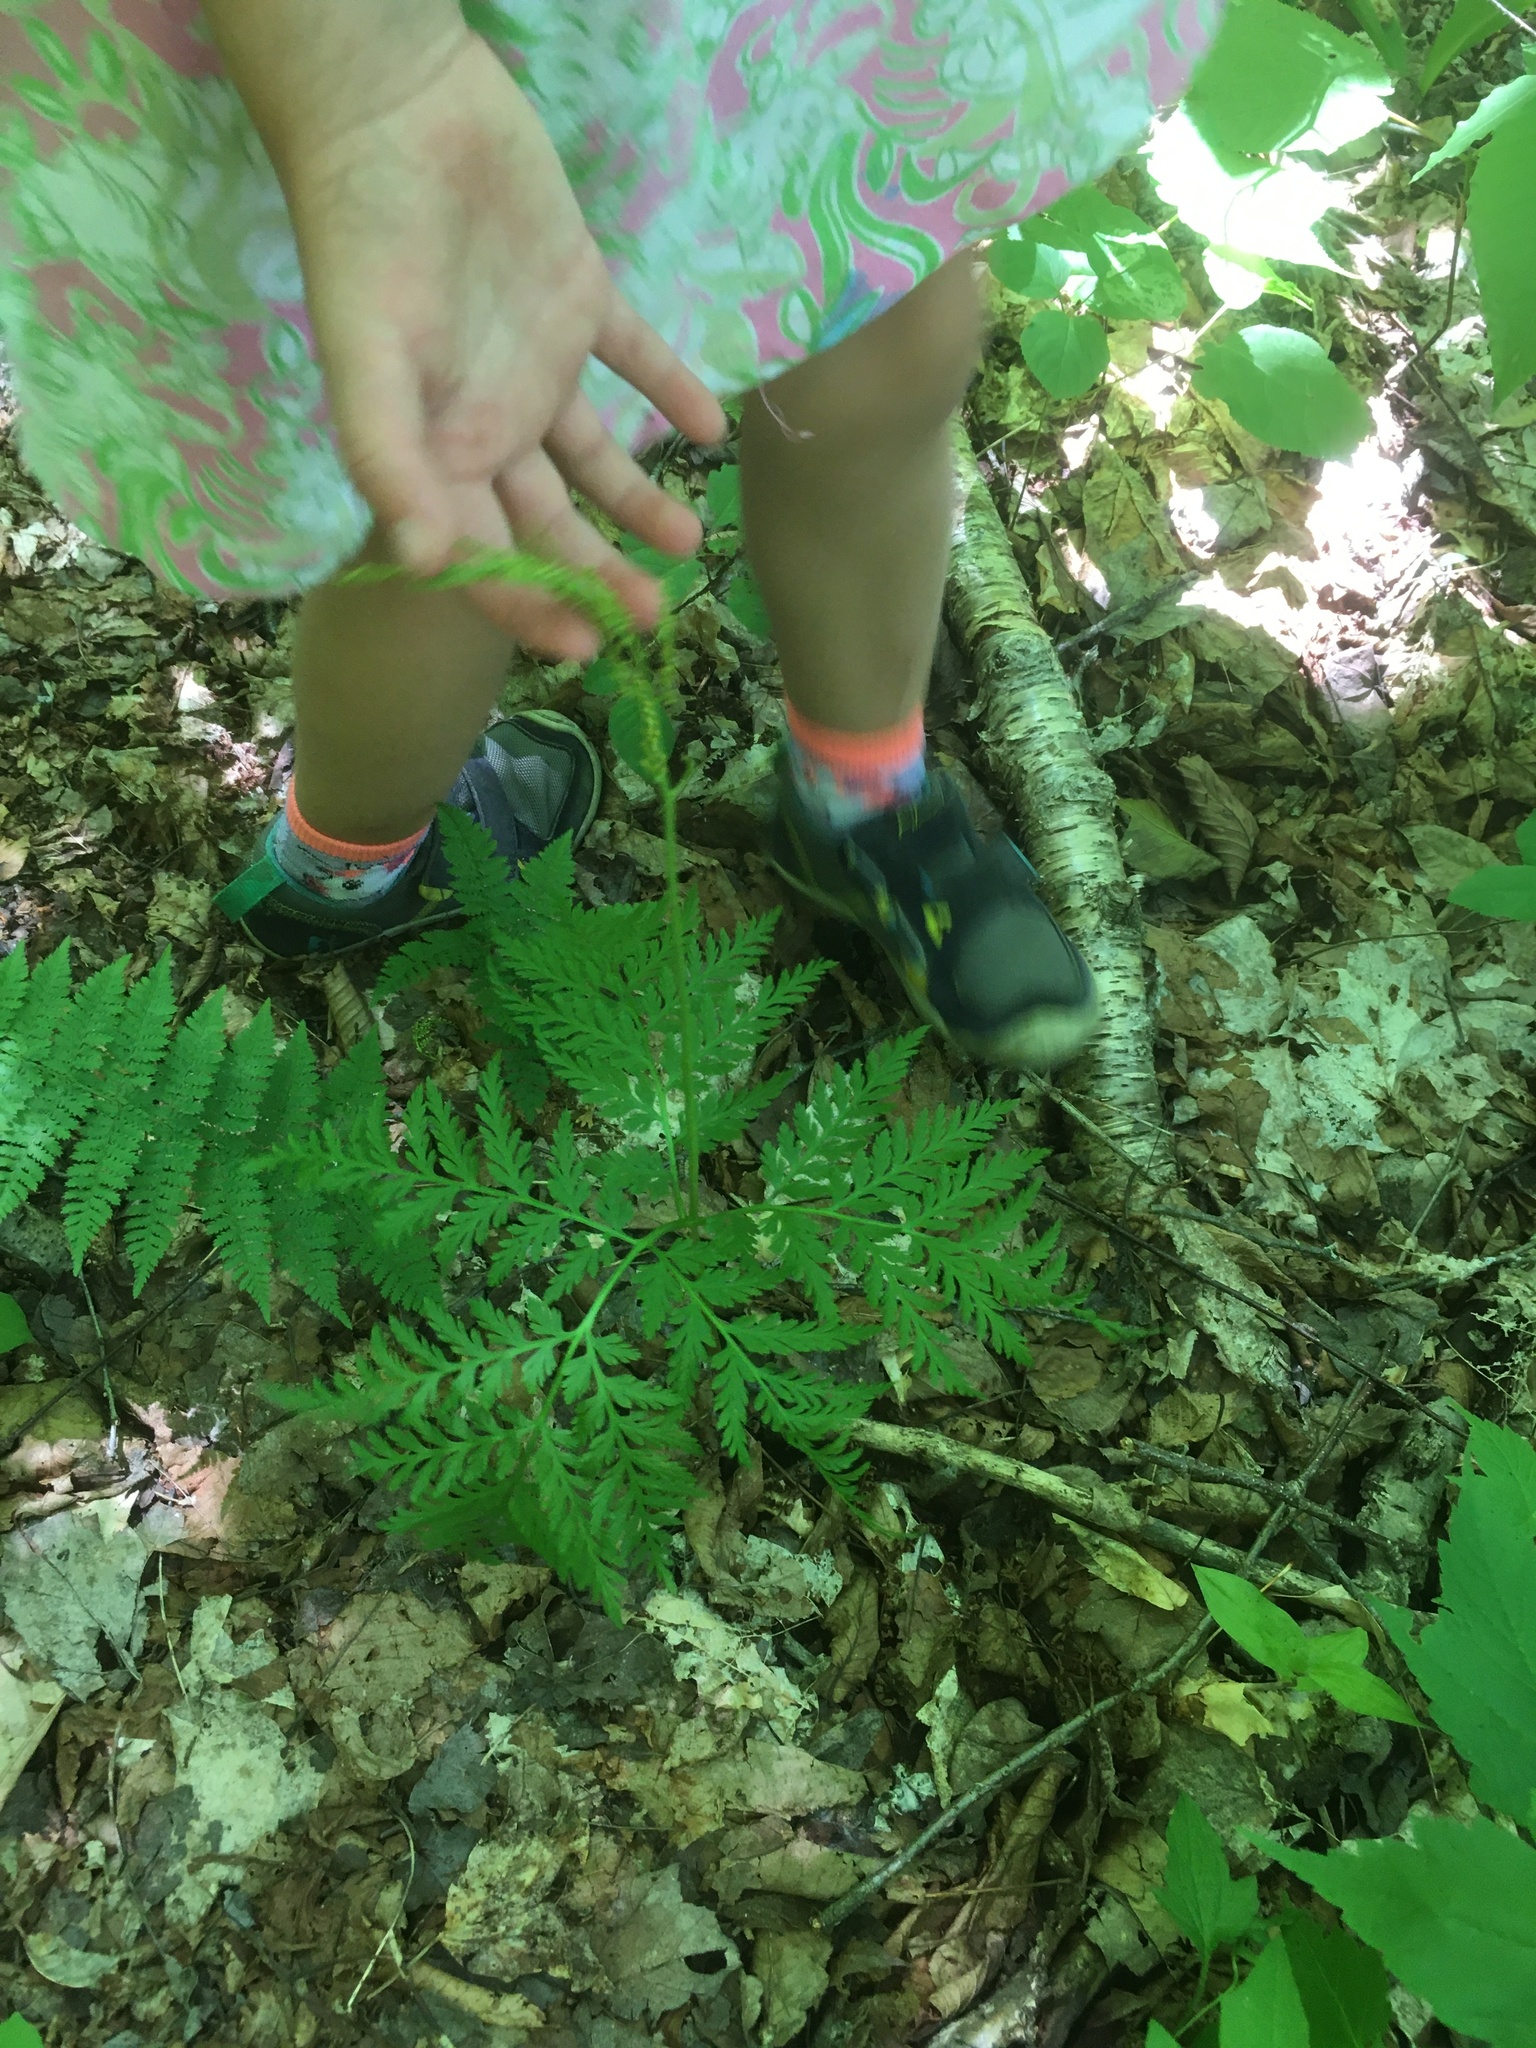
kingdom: Plantae
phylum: Tracheophyta
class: Polypodiopsida
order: Ophioglossales
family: Ophioglossaceae
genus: Botrypus
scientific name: Botrypus virginianus
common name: Common grapefern
